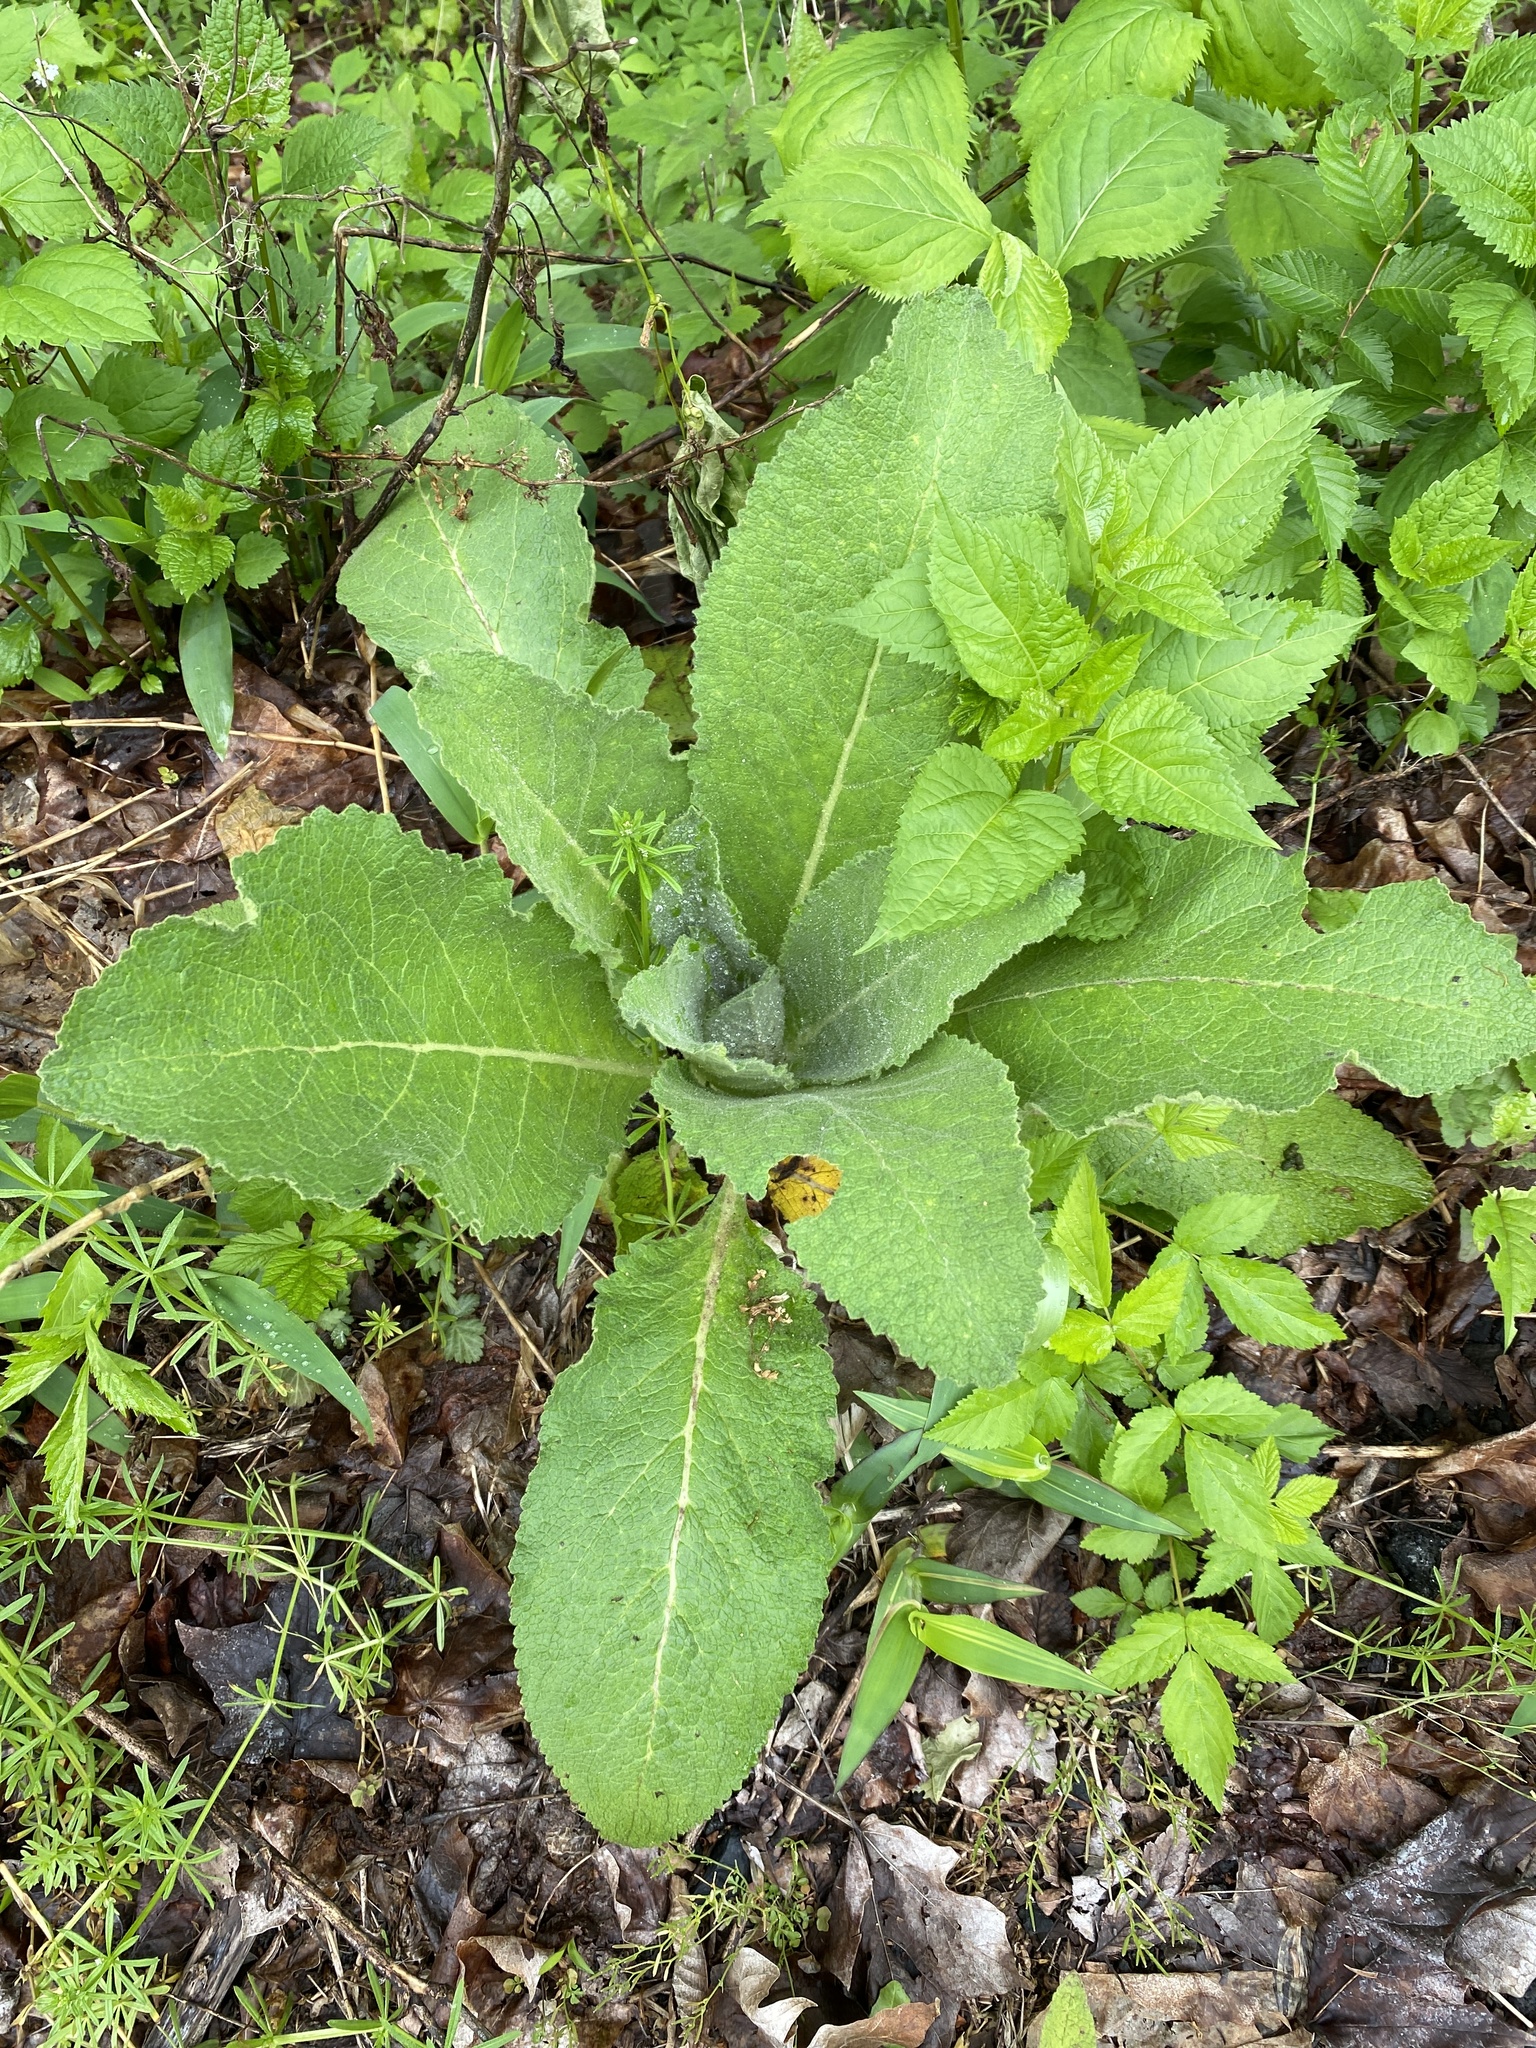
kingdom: Plantae
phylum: Tracheophyta
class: Magnoliopsida
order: Lamiales
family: Scrophulariaceae
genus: Verbascum
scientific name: Verbascum thapsus
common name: Common mullein
